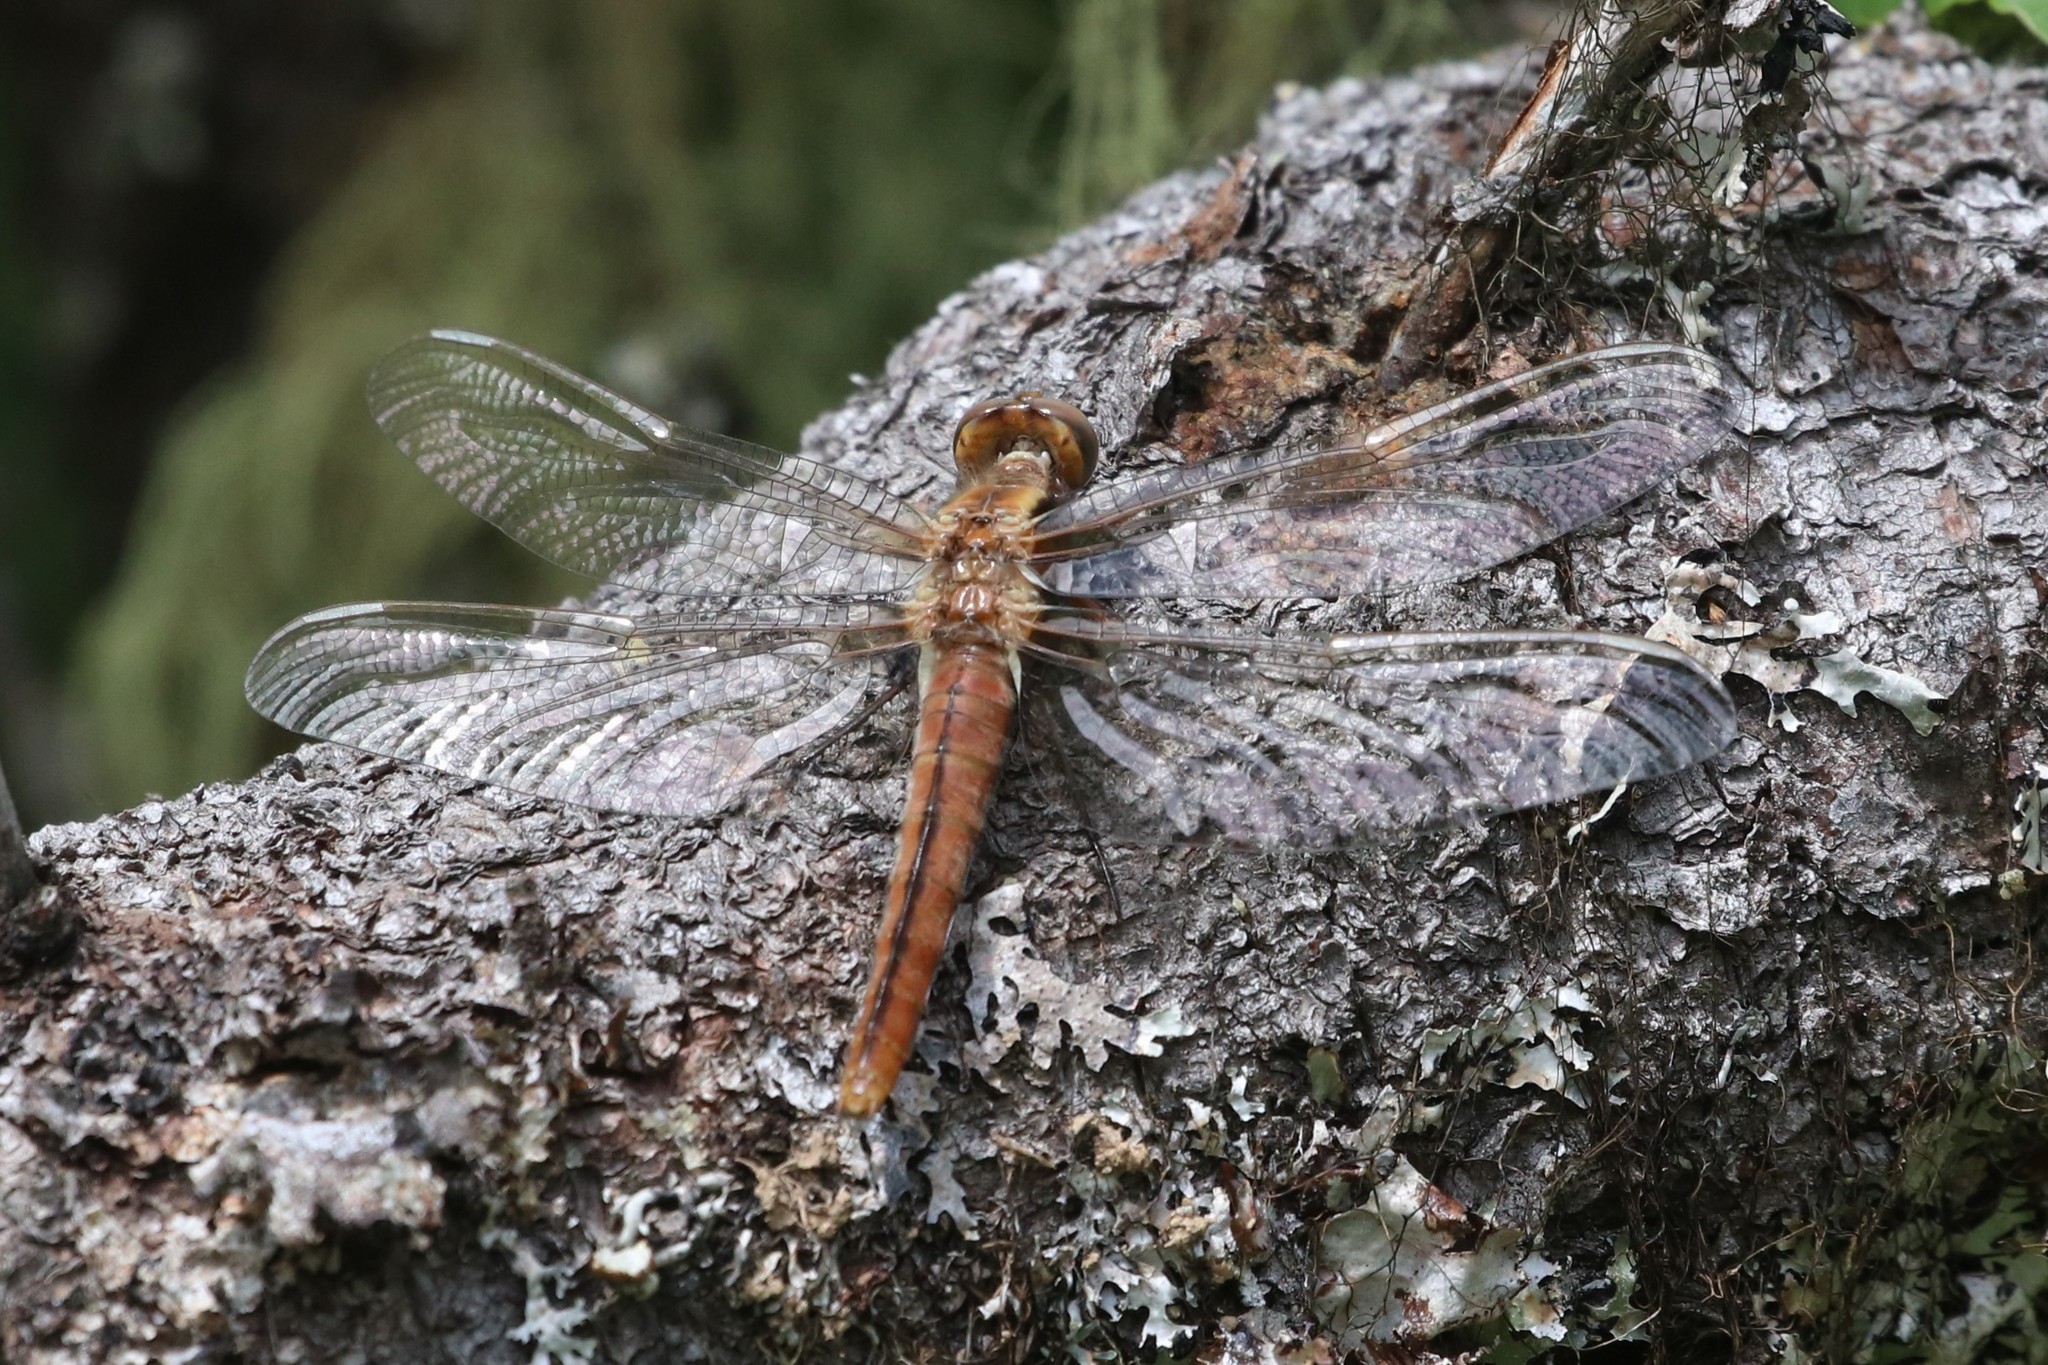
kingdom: Animalia
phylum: Arthropoda
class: Insecta
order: Odonata
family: Libellulidae
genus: Ladona
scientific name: Ladona julia
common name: Chalk-fronted corporal
